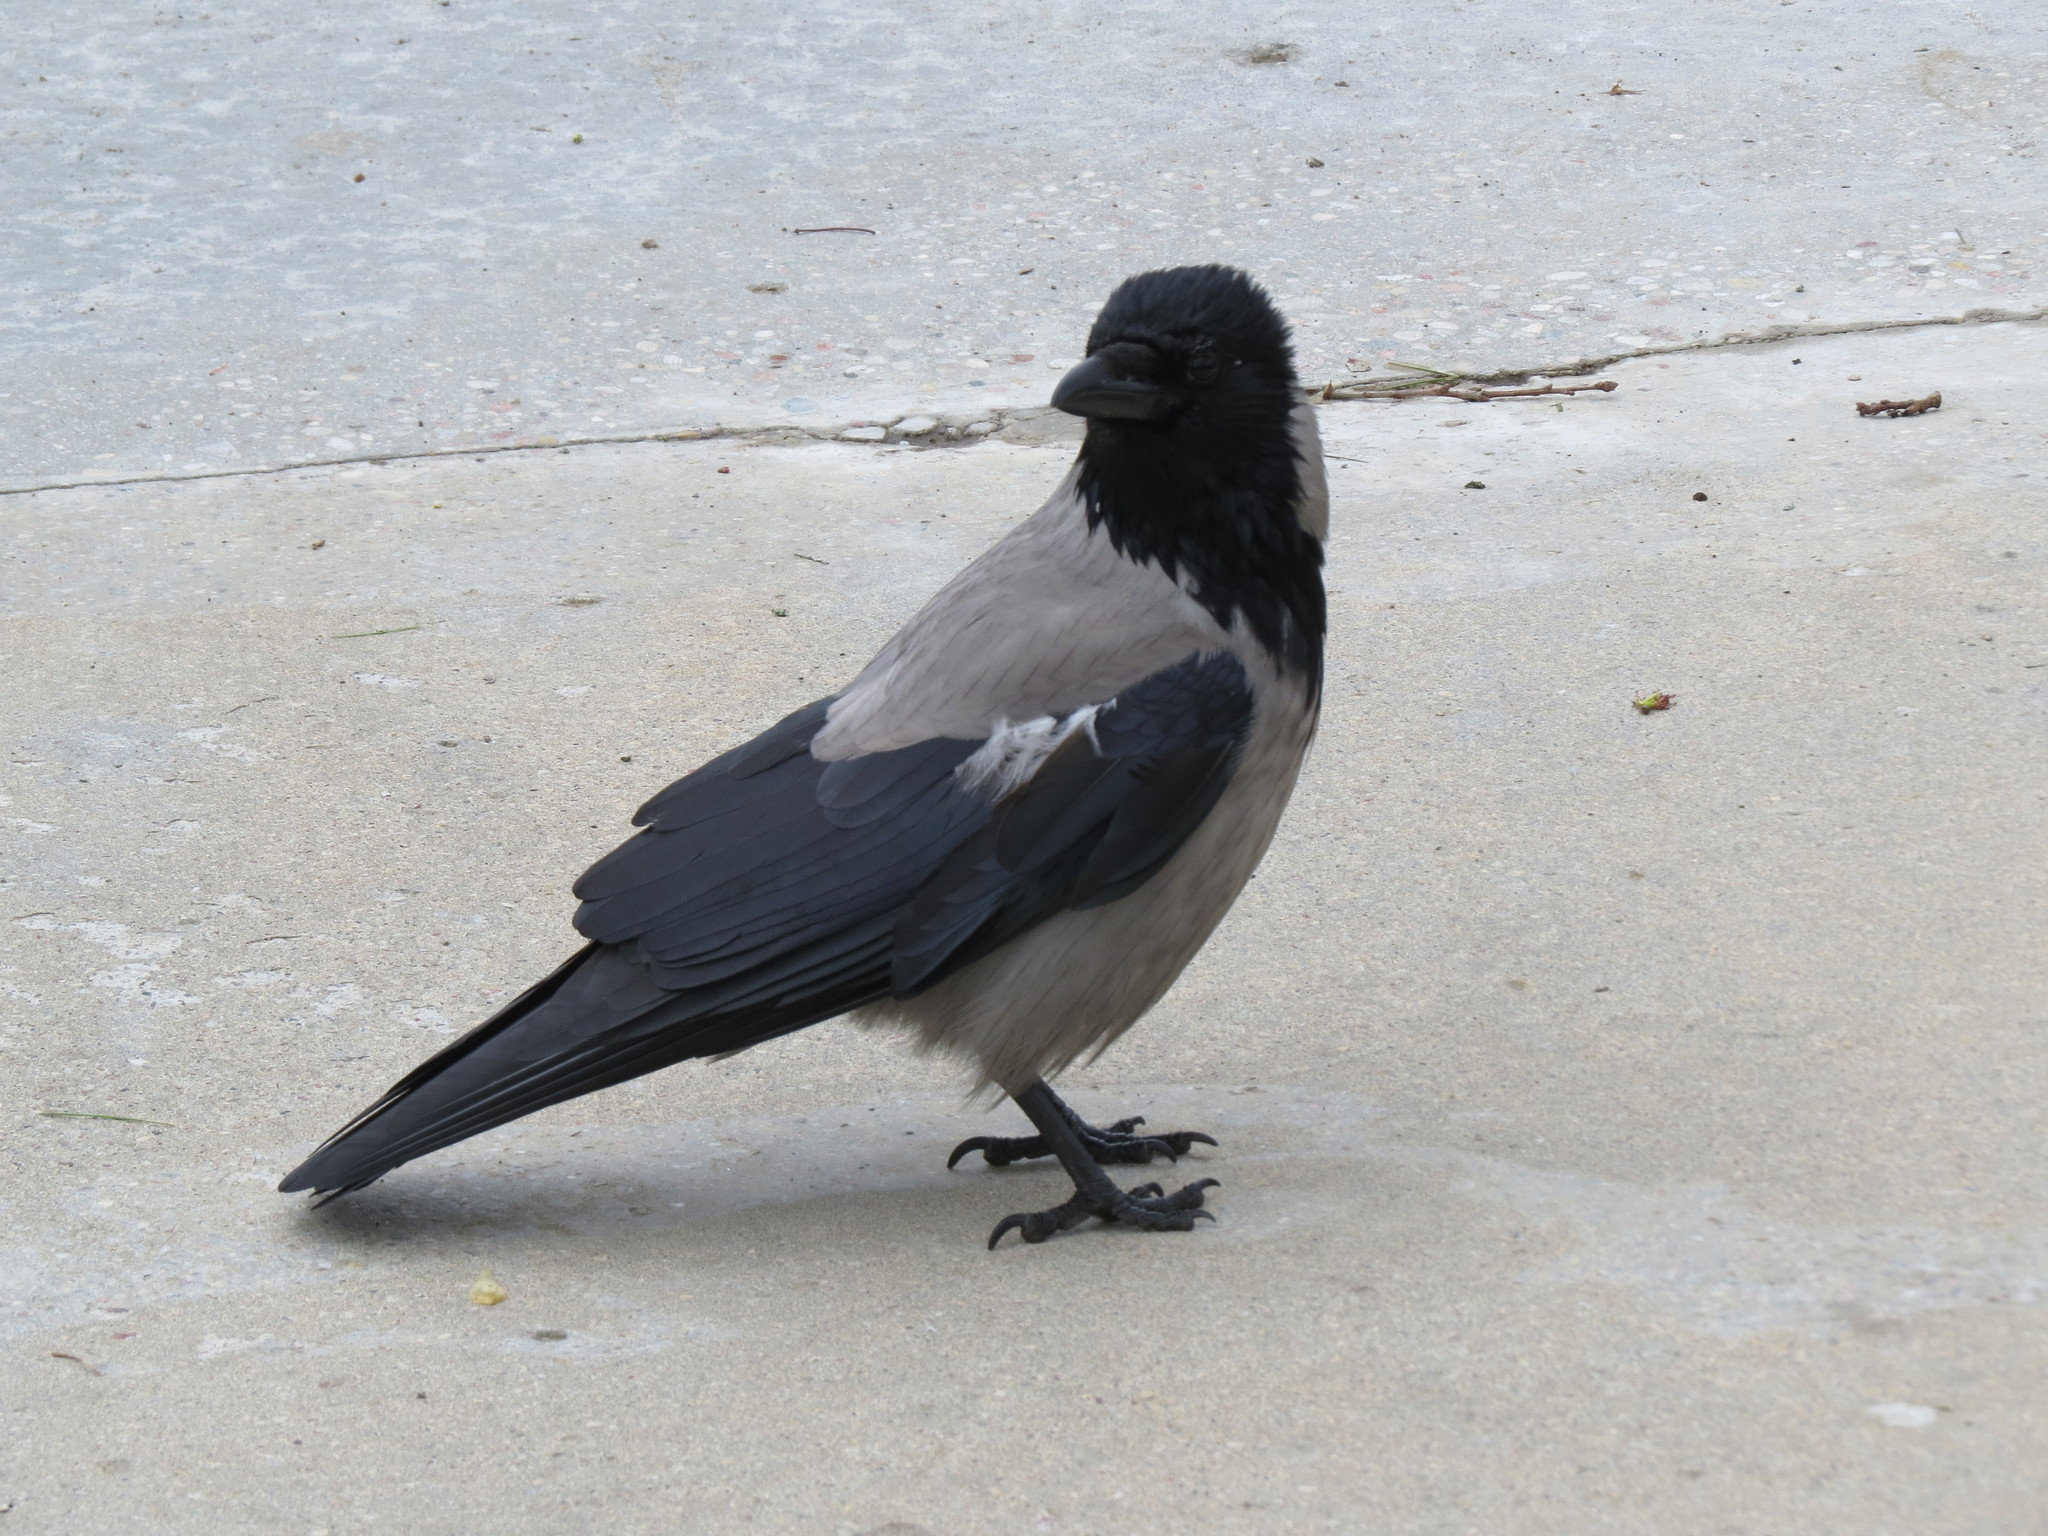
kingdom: Animalia
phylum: Chordata
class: Aves
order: Passeriformes
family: Corvidae
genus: Corvus
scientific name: Corvus cornix
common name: Hooded crow
